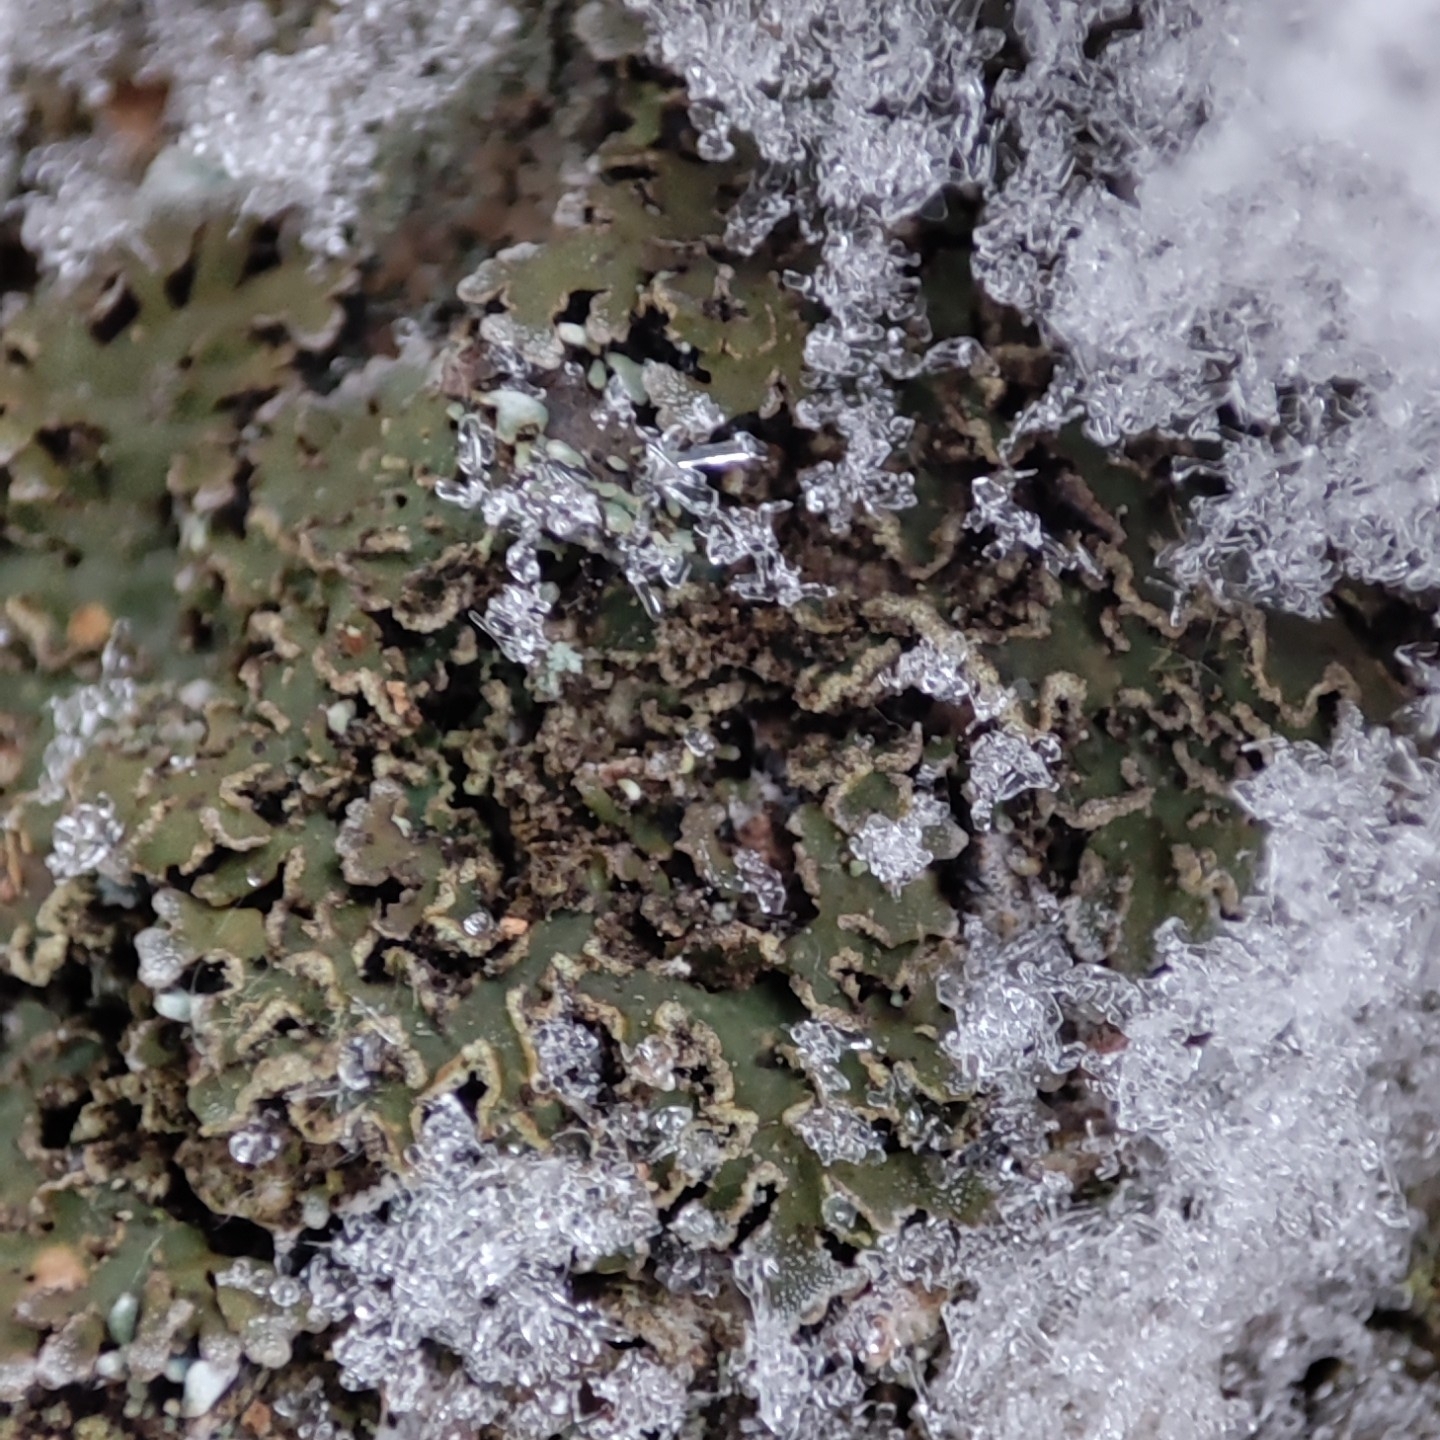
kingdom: Fungi
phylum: Ascomycota
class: Lecanoromycetes
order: Caliciales
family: Physciaceae
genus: Physconia
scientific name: Physconia perisidiosa
